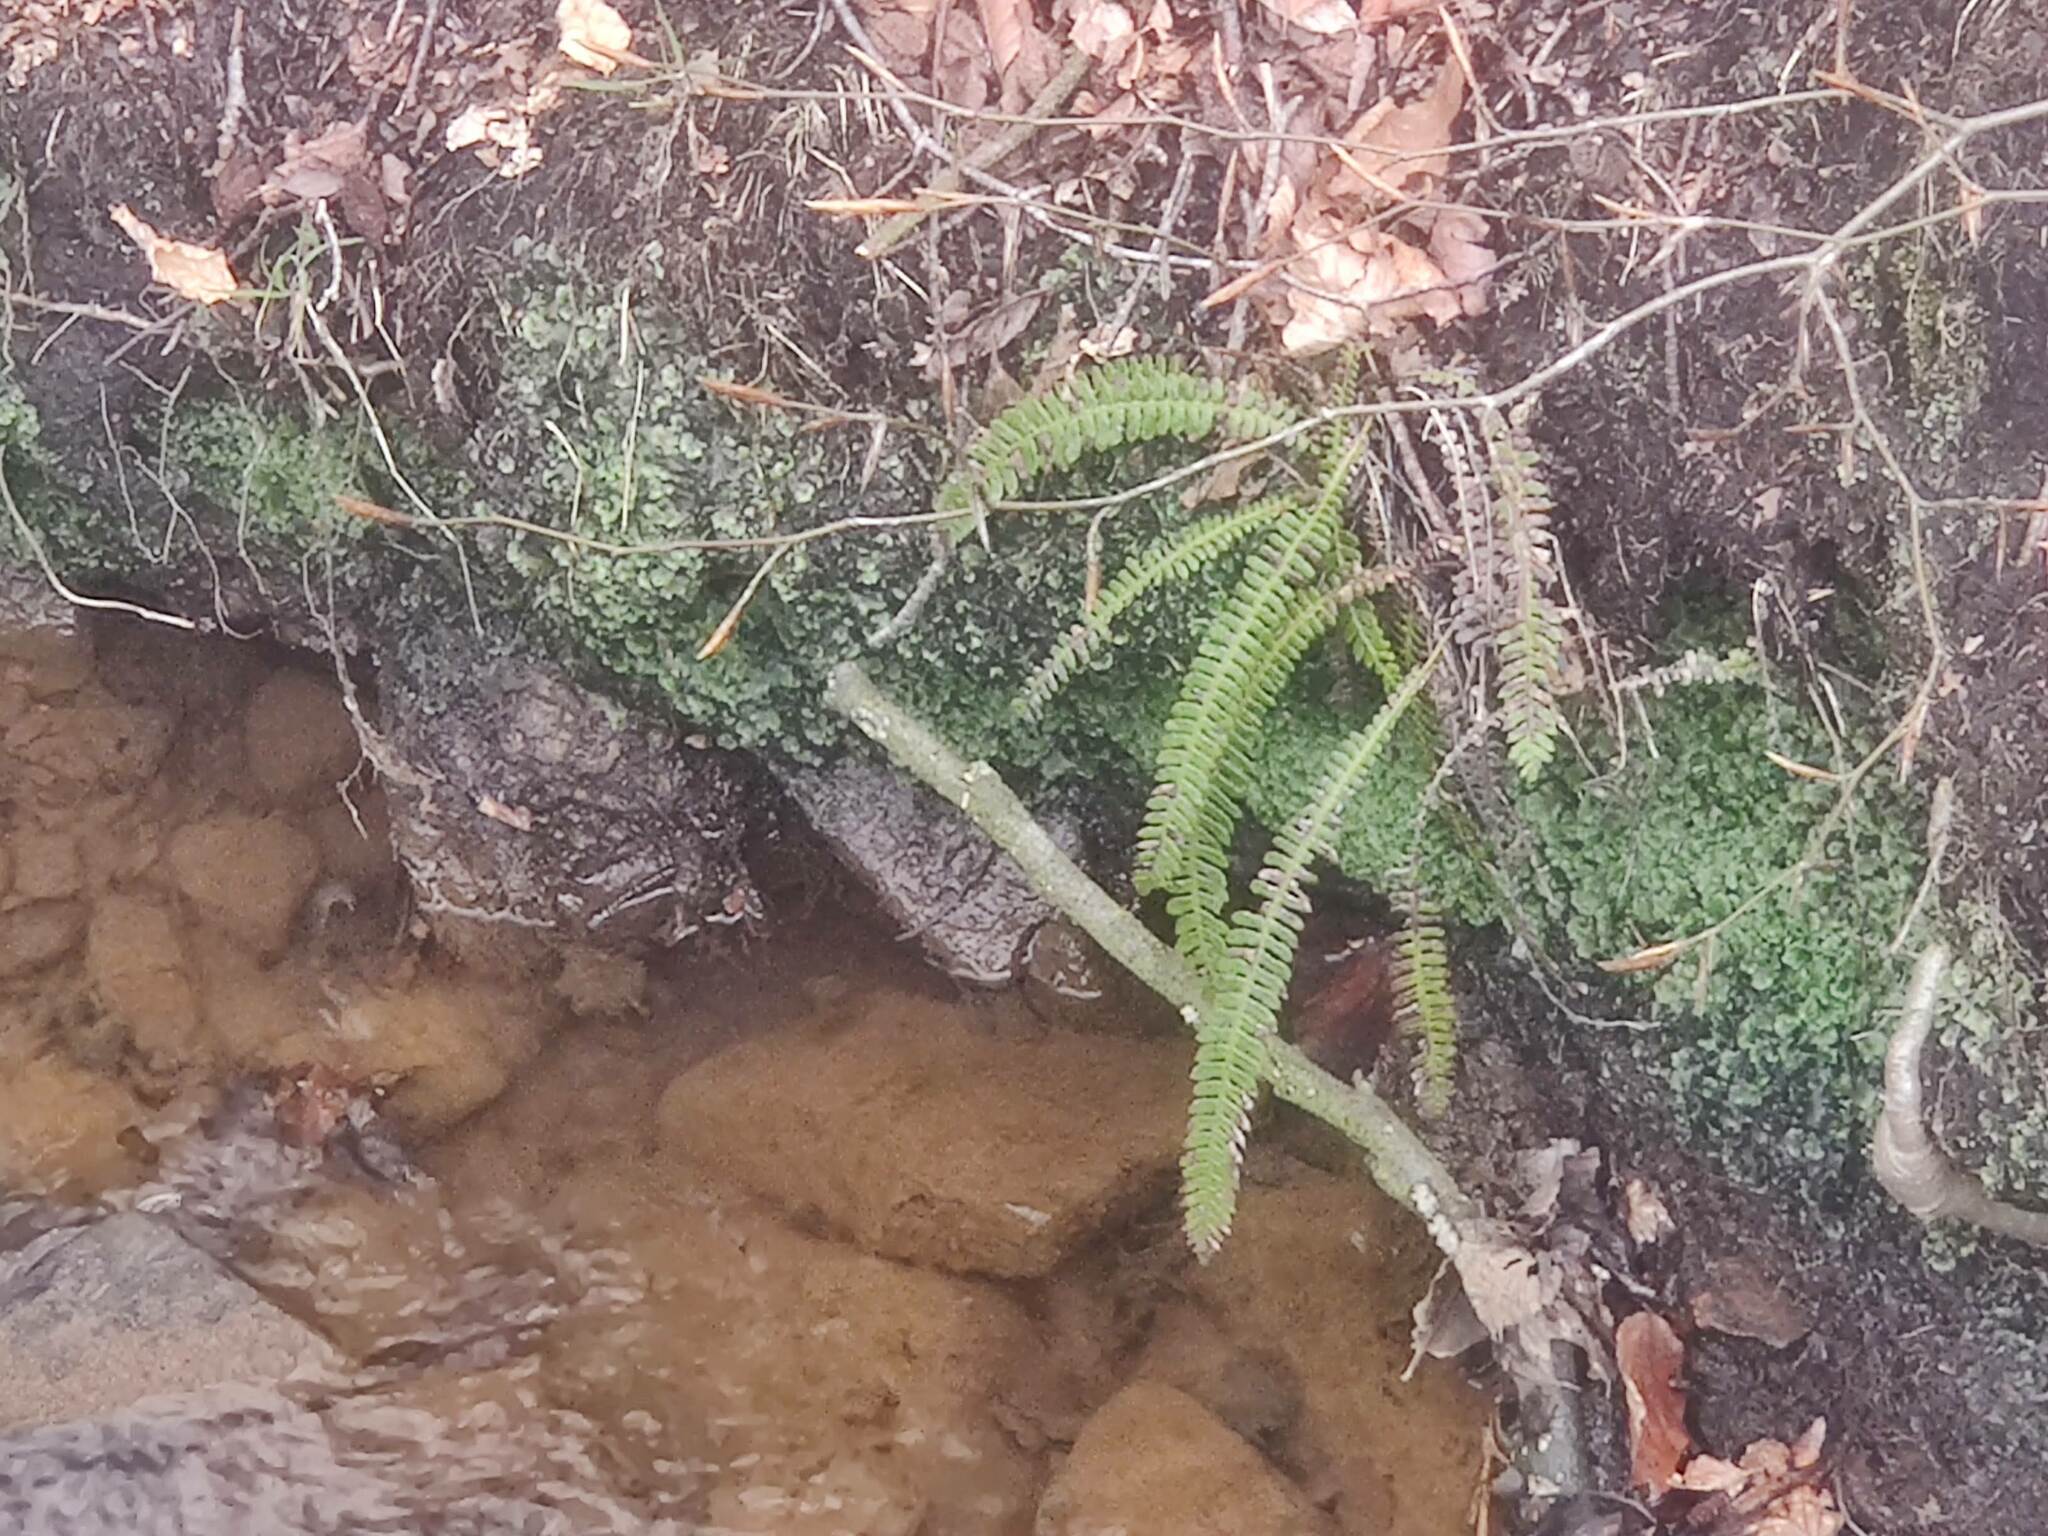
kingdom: Plantae
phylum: Tracheophyta
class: Polypodiopsida
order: Polypodiales
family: Blechnaceae
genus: Struthiopteris
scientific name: Struthiopteris spicant
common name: Deer fern
